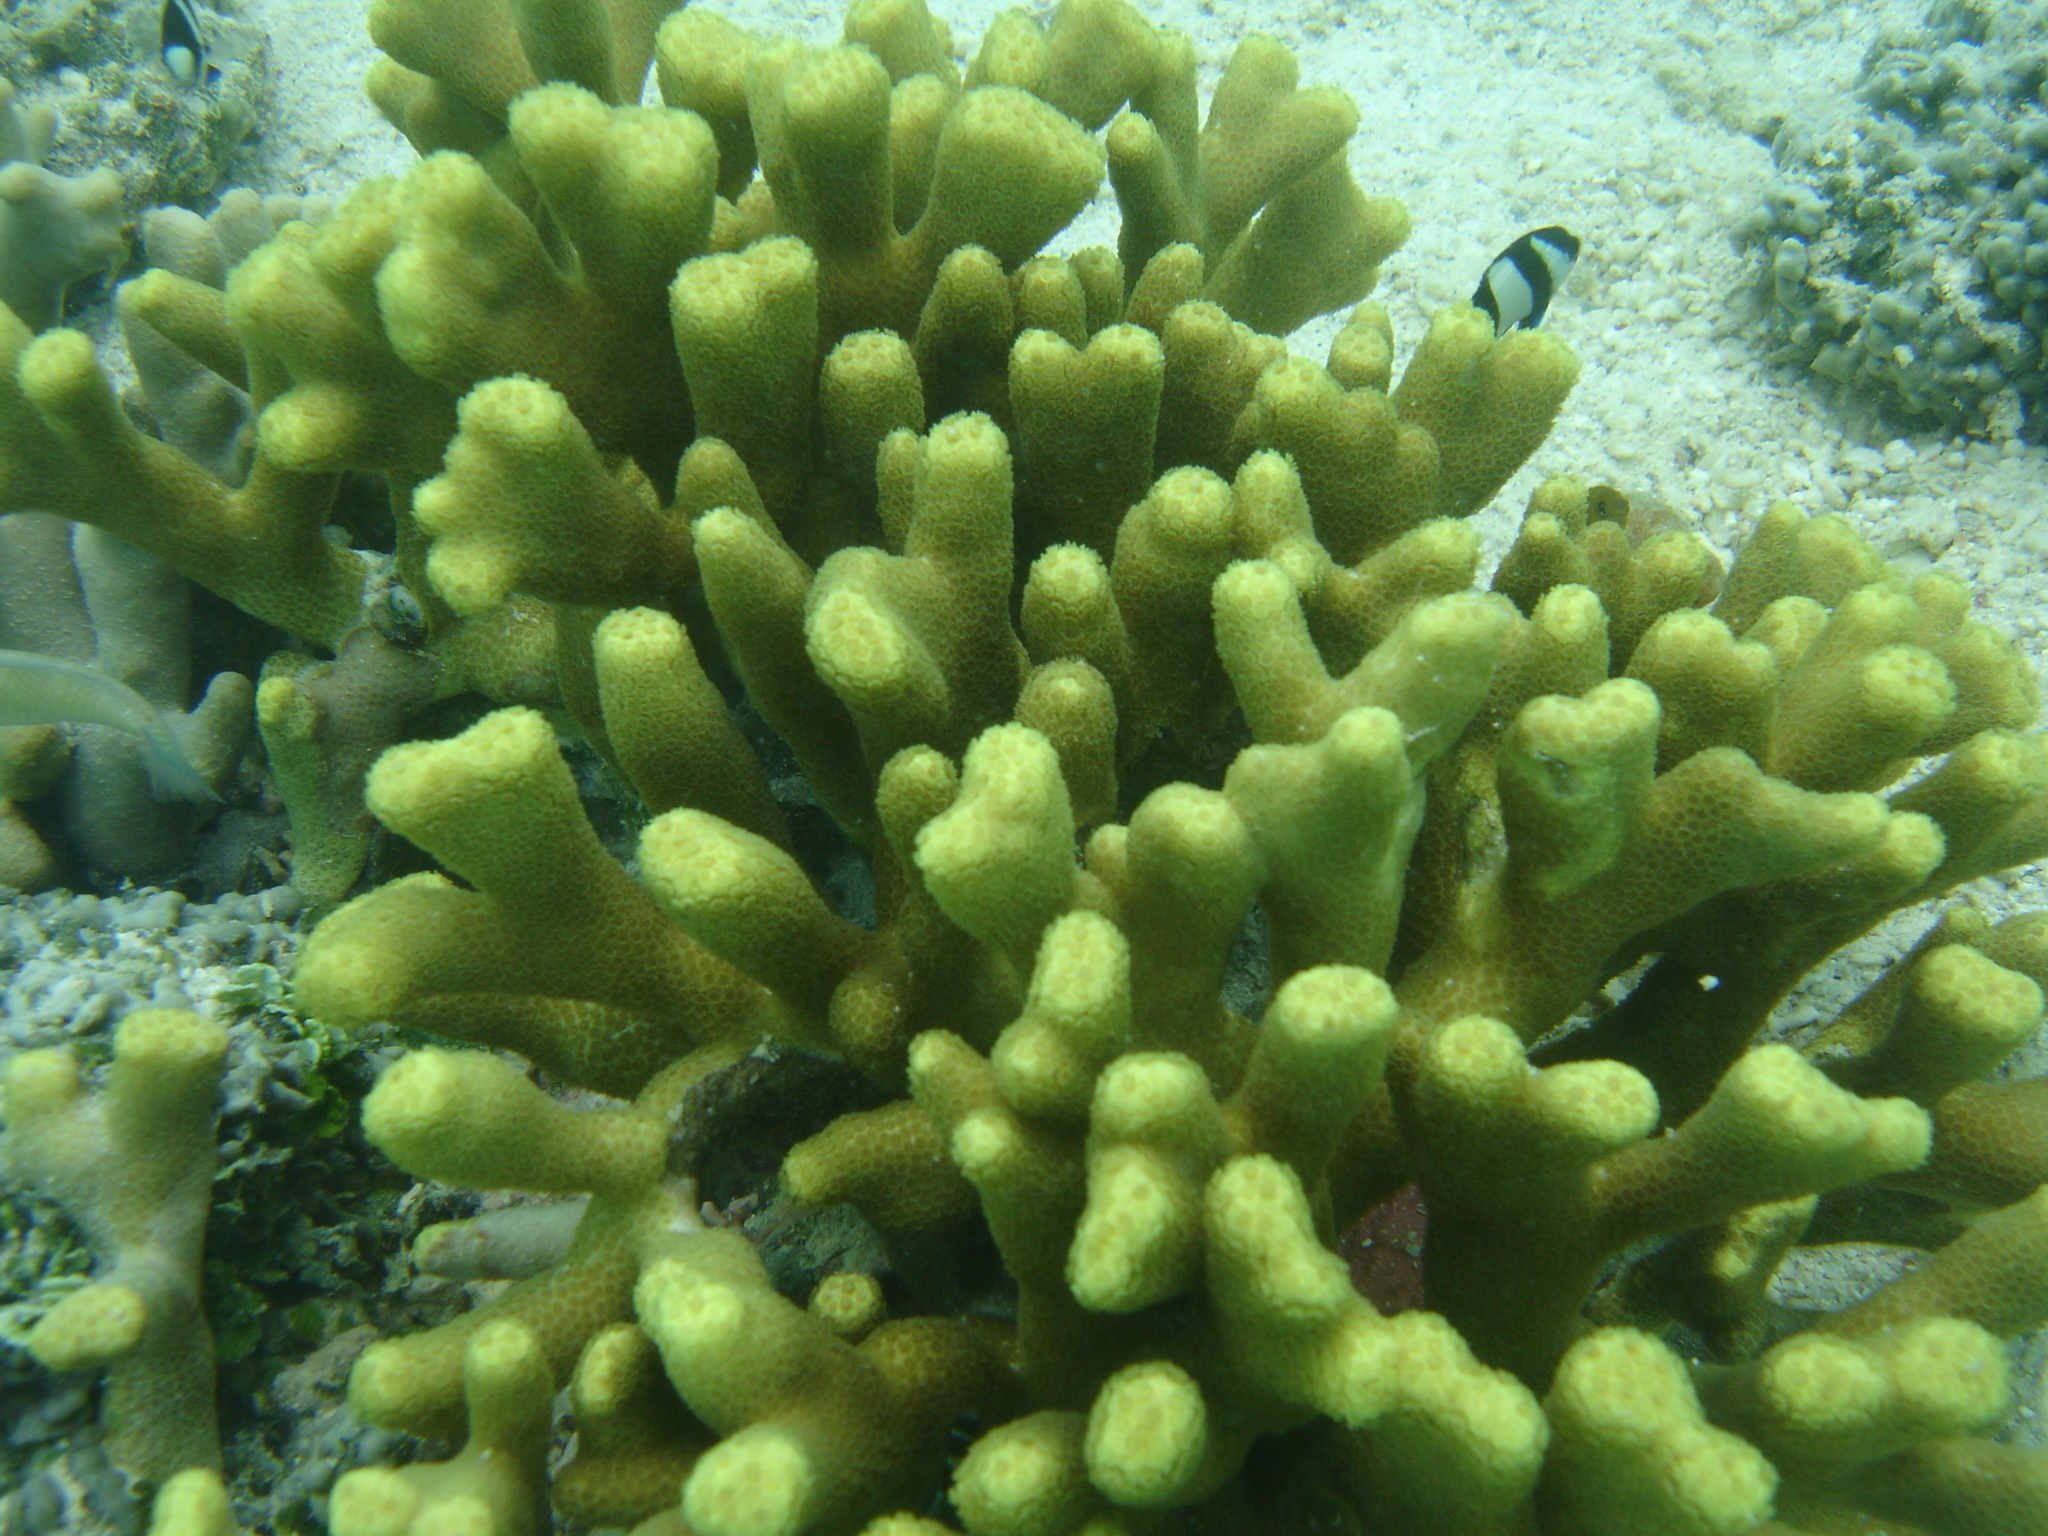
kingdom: Animalia
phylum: Cnidaria
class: Anthozoa
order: Scleractinia
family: Poritidae
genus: Porites
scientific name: Porites attenuata
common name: Hump coral
